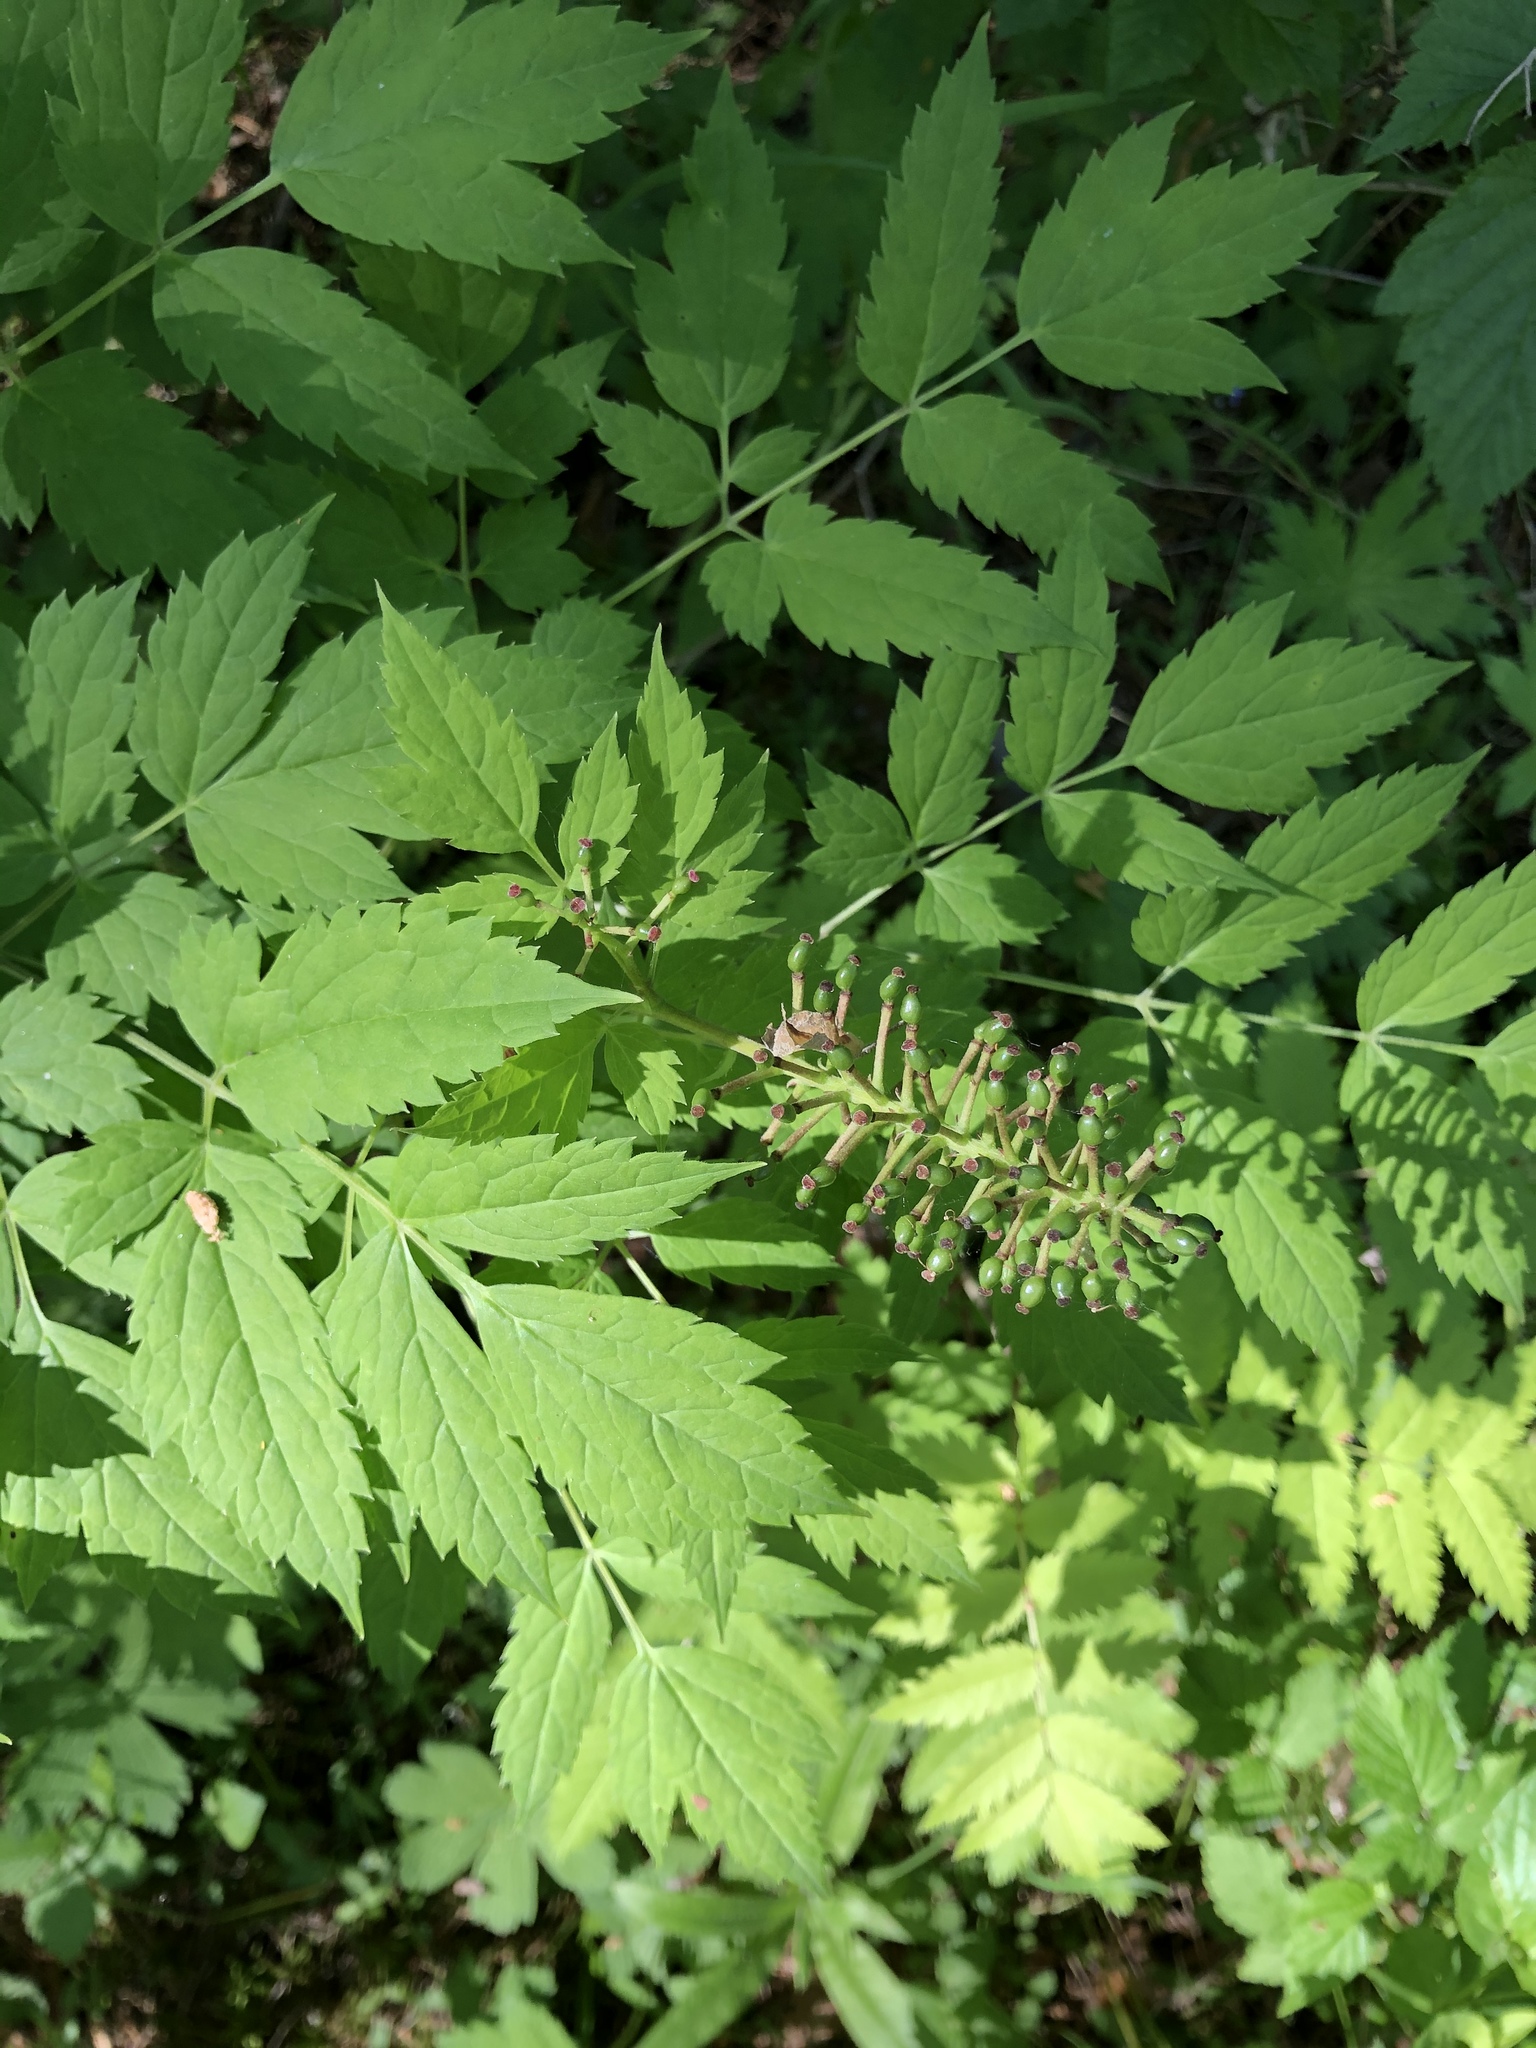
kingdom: Plantae
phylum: Tracheophyta
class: Magnoliopsida
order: Ranunculales
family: Ranunculaceae
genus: Actaea
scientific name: Actaea erythrocarpa
